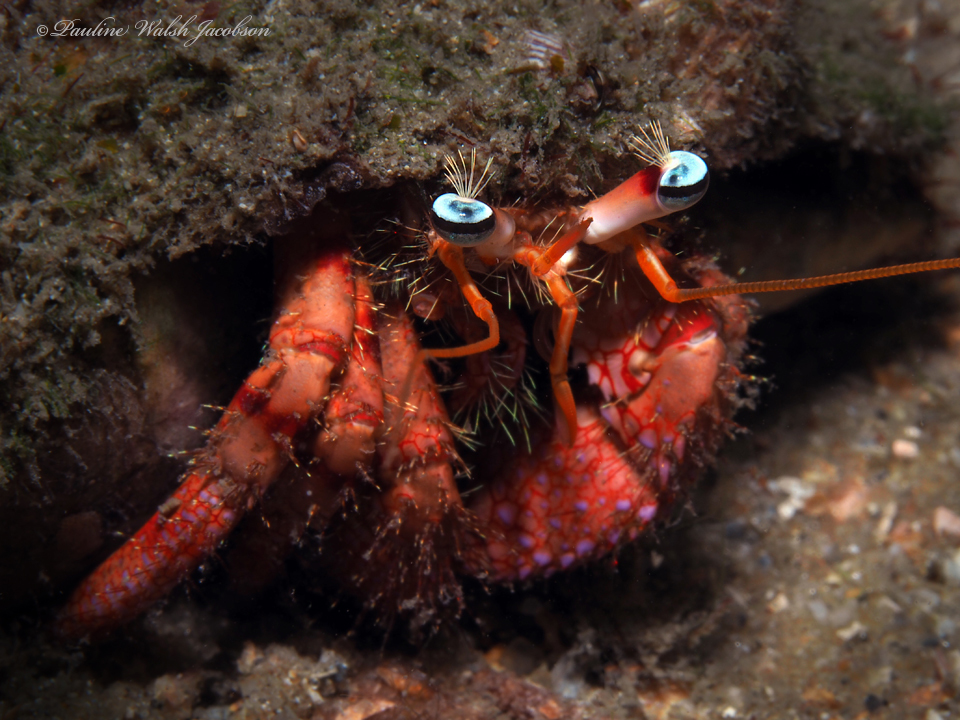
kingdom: Animalia
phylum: Arthropoda
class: Malacostraca
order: Decapoda
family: Diogenidae
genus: Dardanus
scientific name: Dardanus fucosus
